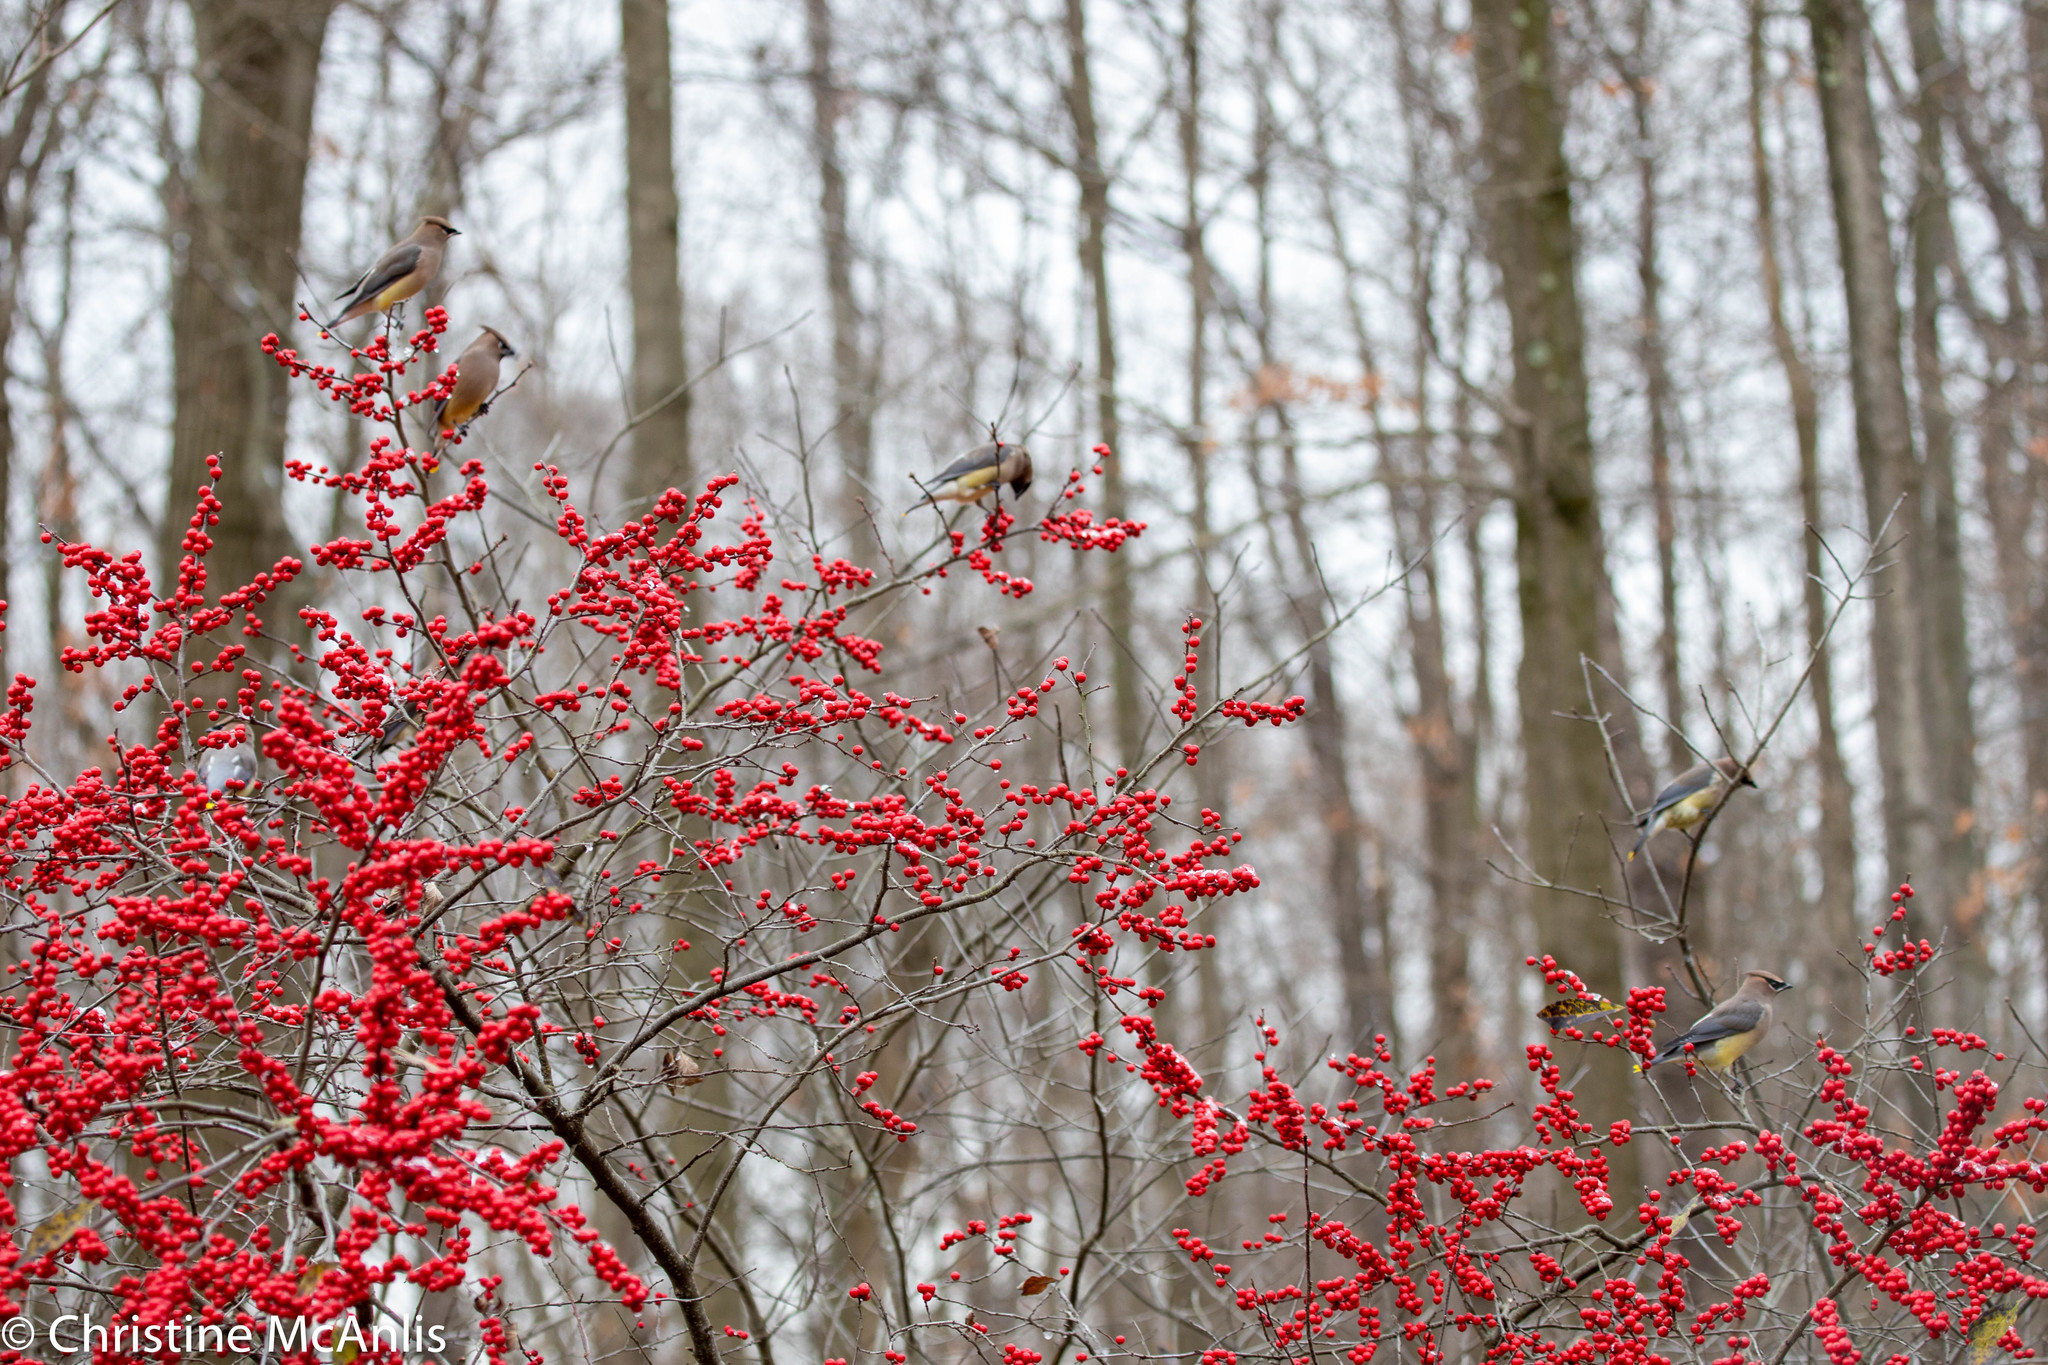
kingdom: Animalia
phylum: Chordata
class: Aves
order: Passeriformes
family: Bombycillidae
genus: Bombycilla
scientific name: Bombycilla cedrorum
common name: Cedar waxwing
